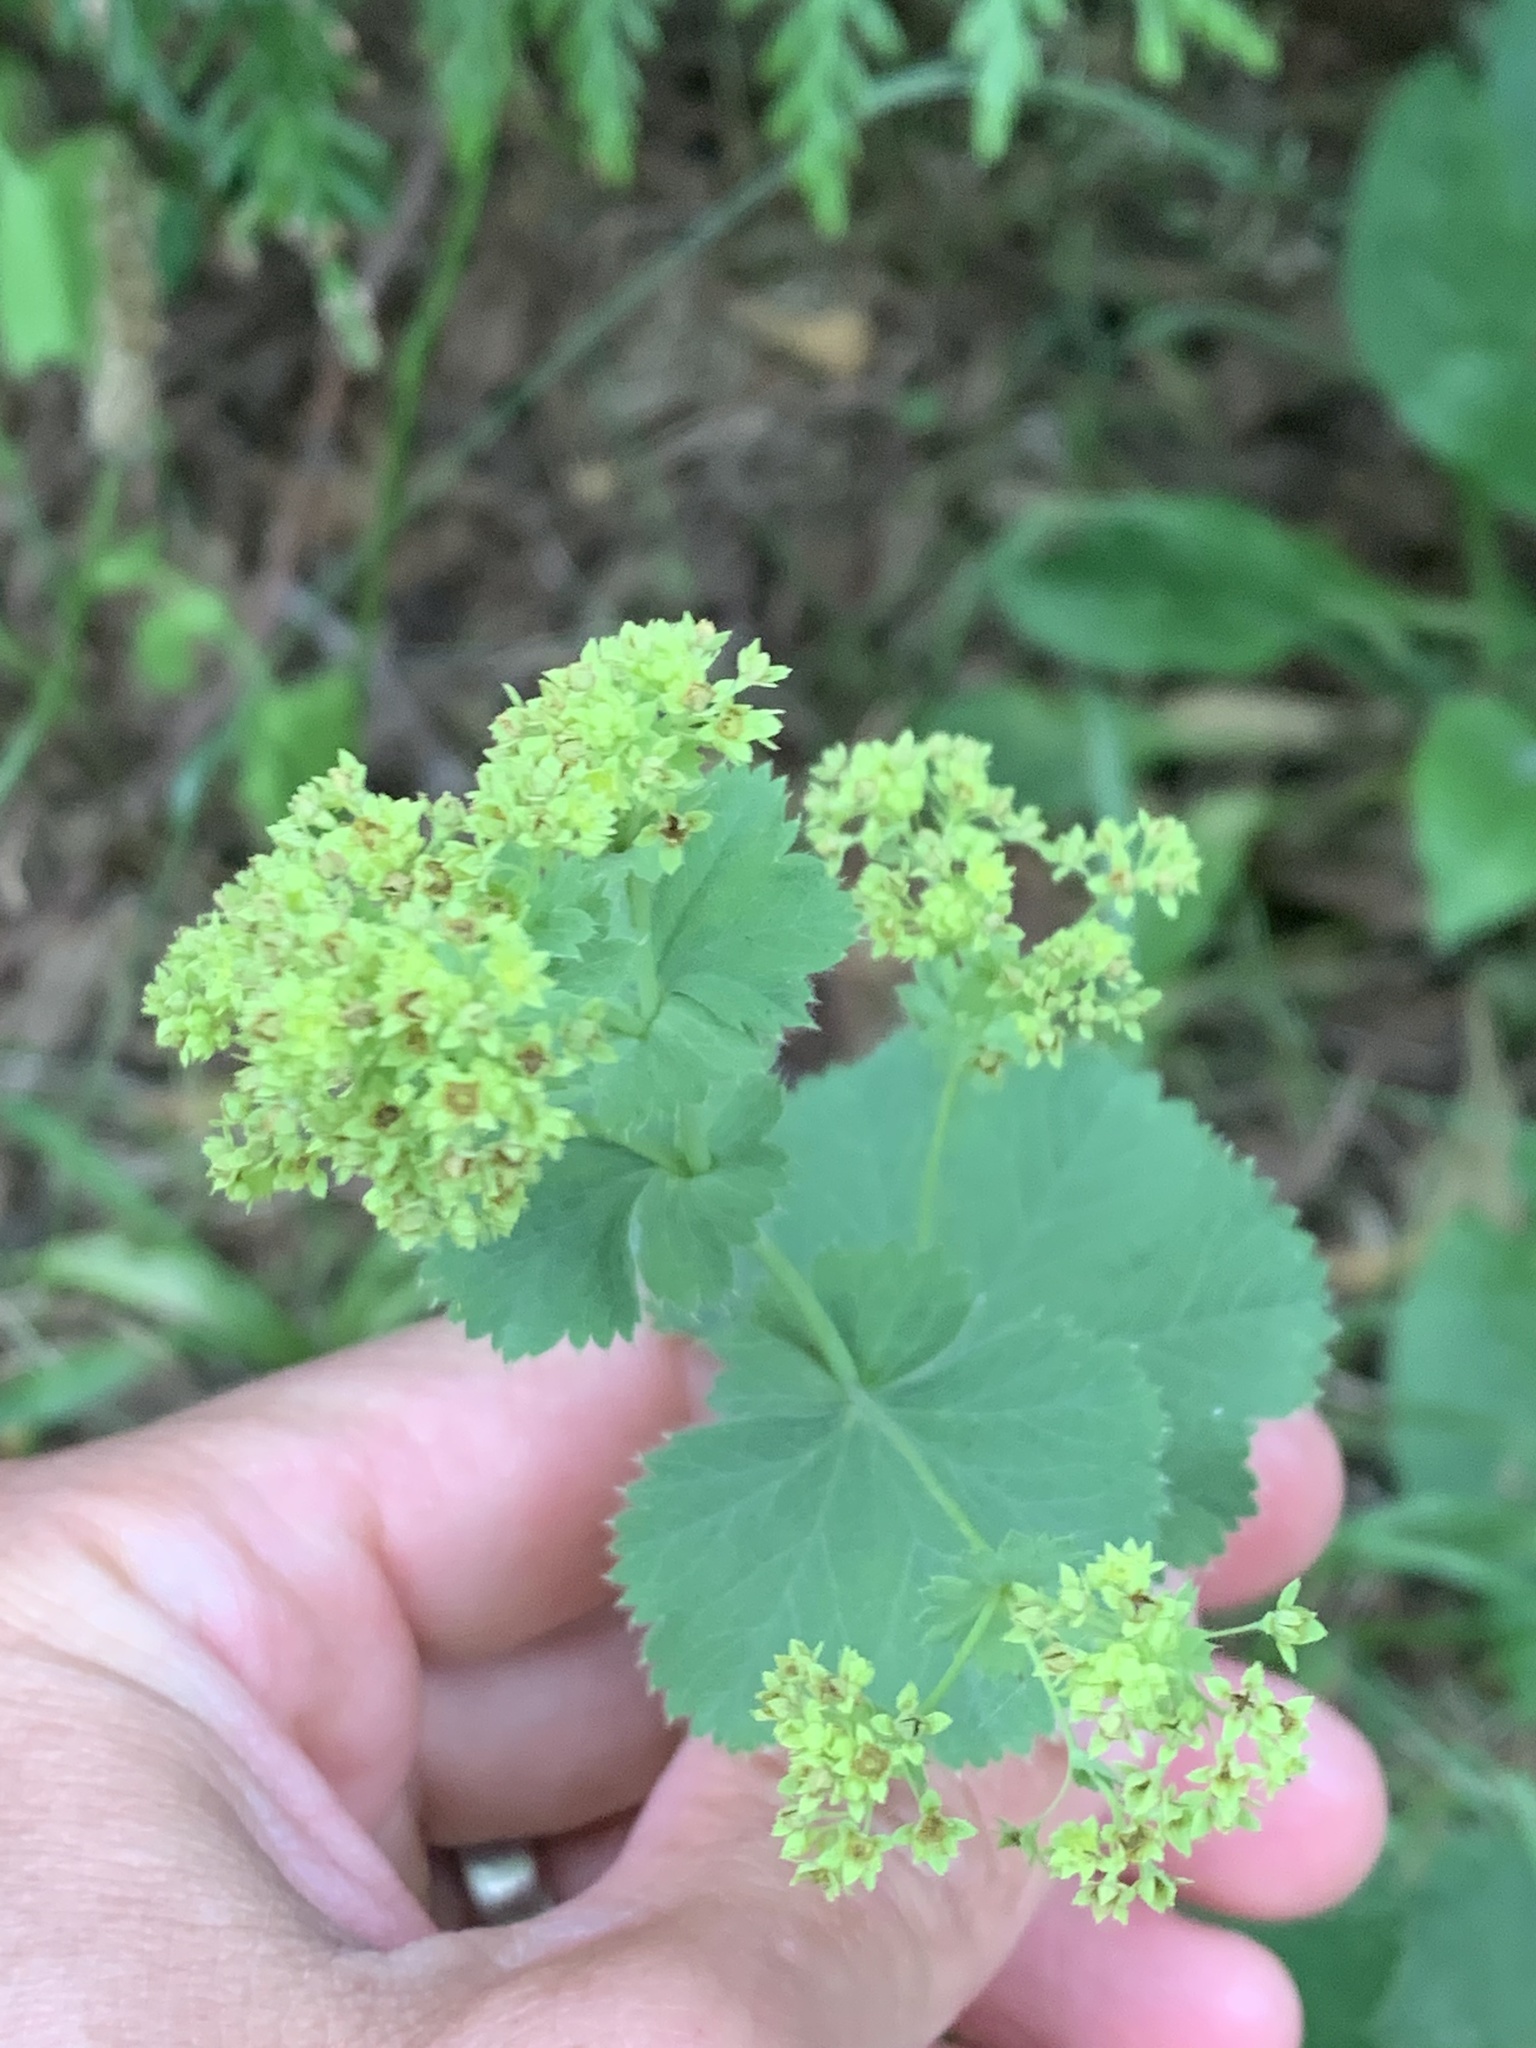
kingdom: Plantae
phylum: Tracheophyta
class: Magnoliopsida
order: Rosales
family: Rosaceae
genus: Alchemilla
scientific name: Alchemilla mollis
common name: Lady's-mantle
